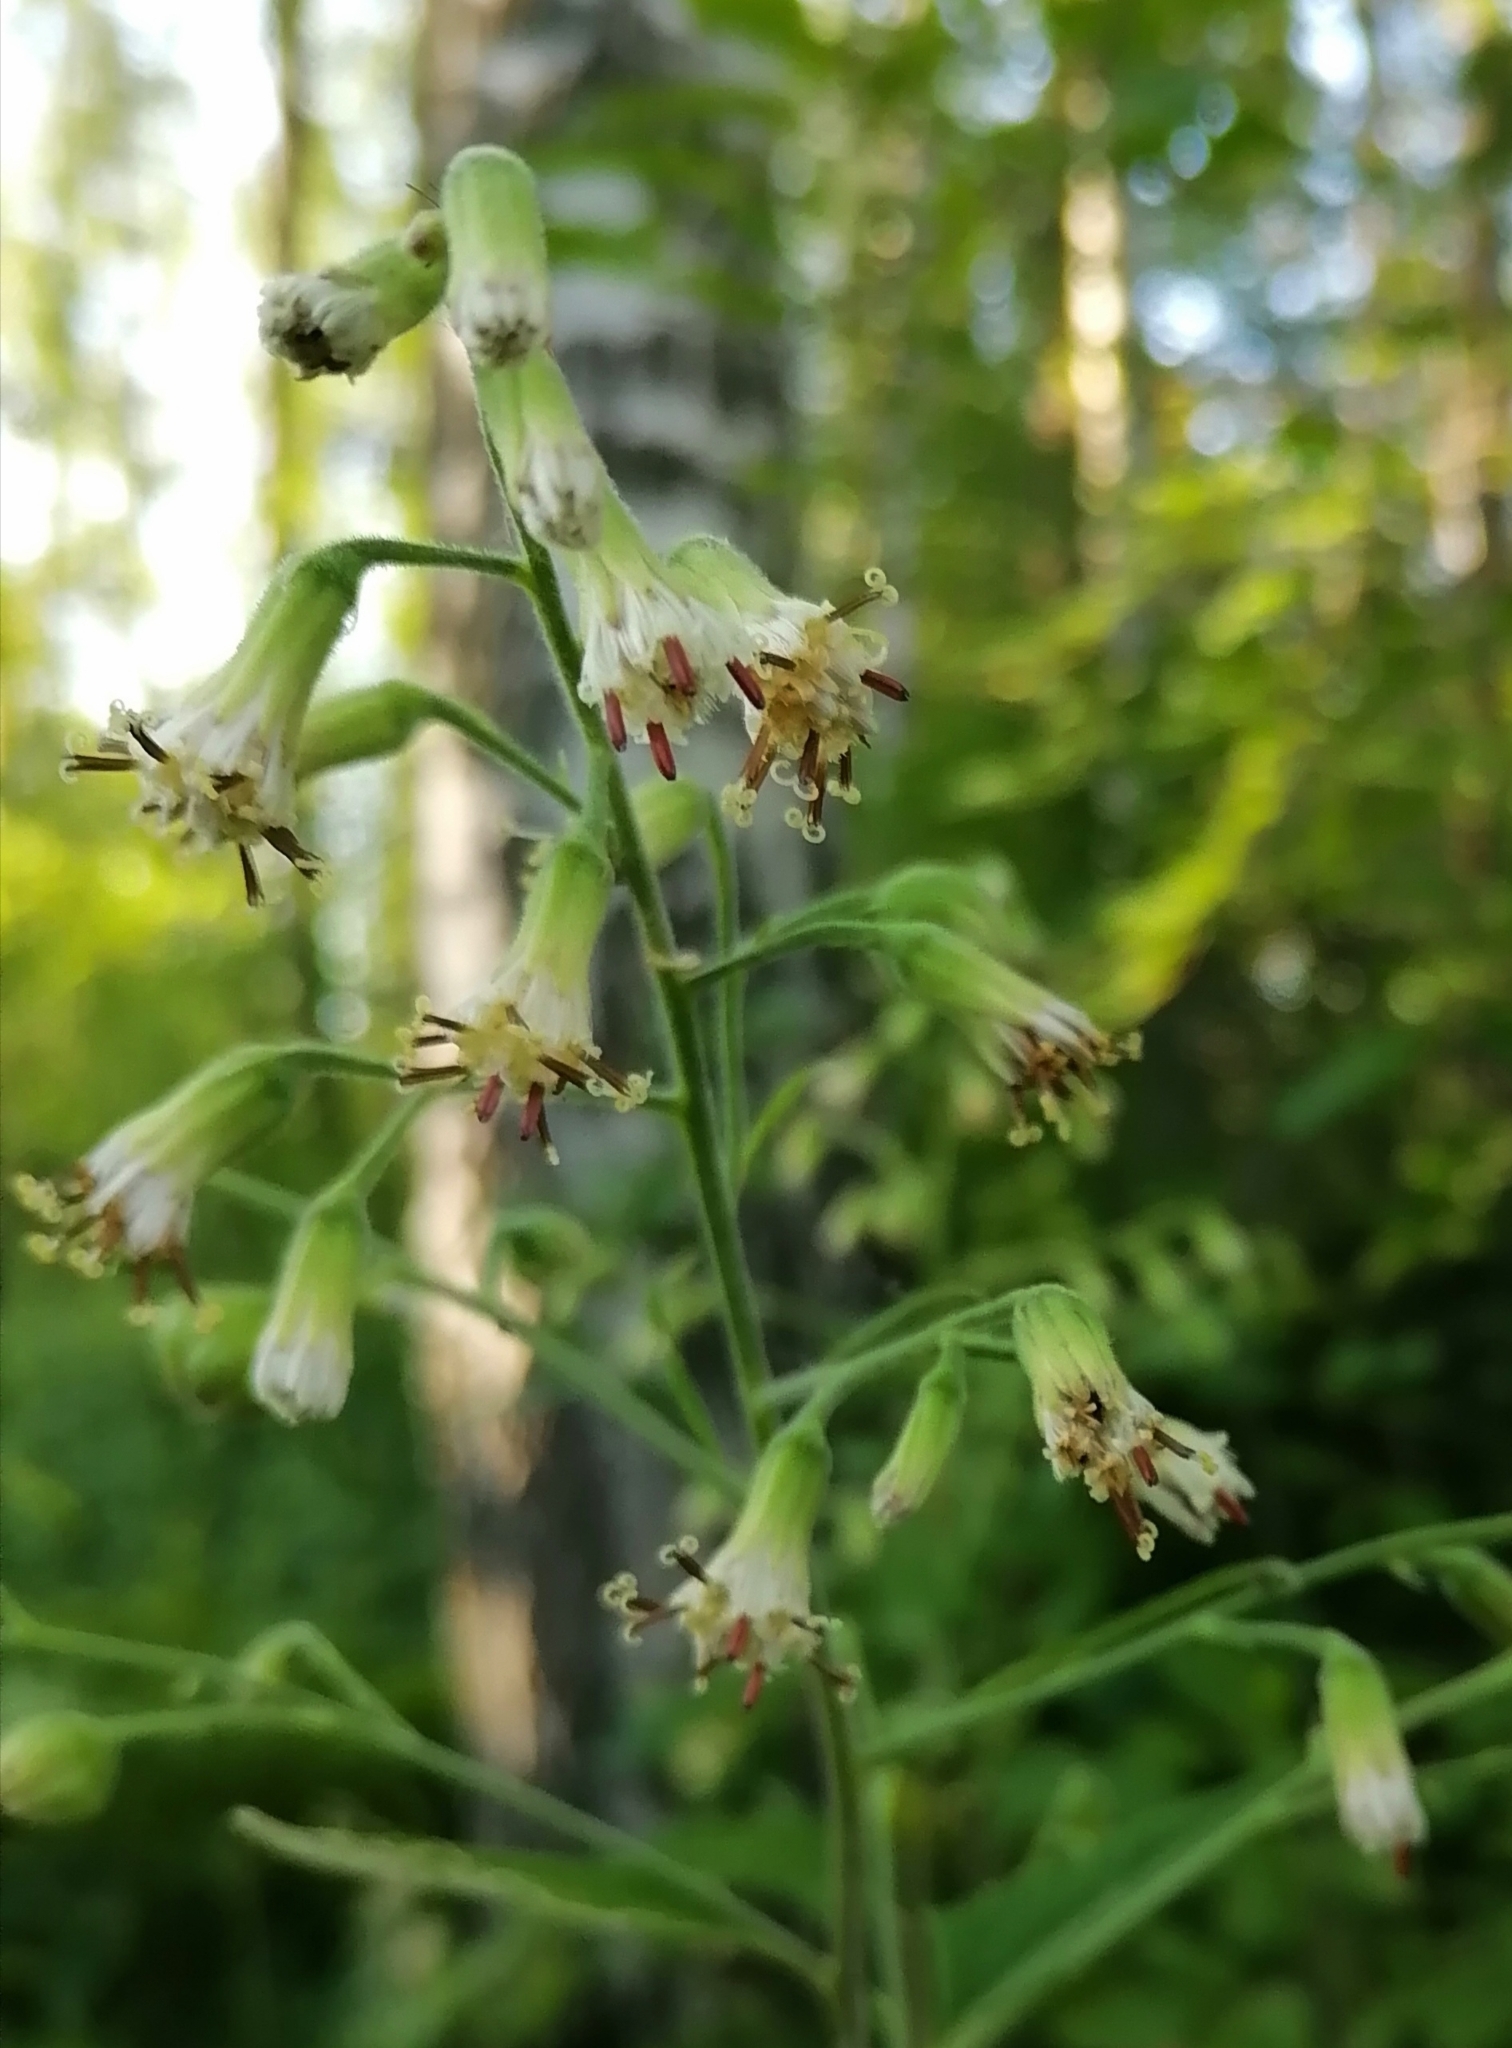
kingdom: Plantae
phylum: Tracheophyta
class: Magnoliopsida
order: Asterales
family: Asteraceae
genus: Parasenecio
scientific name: Parasenecio hastatus
